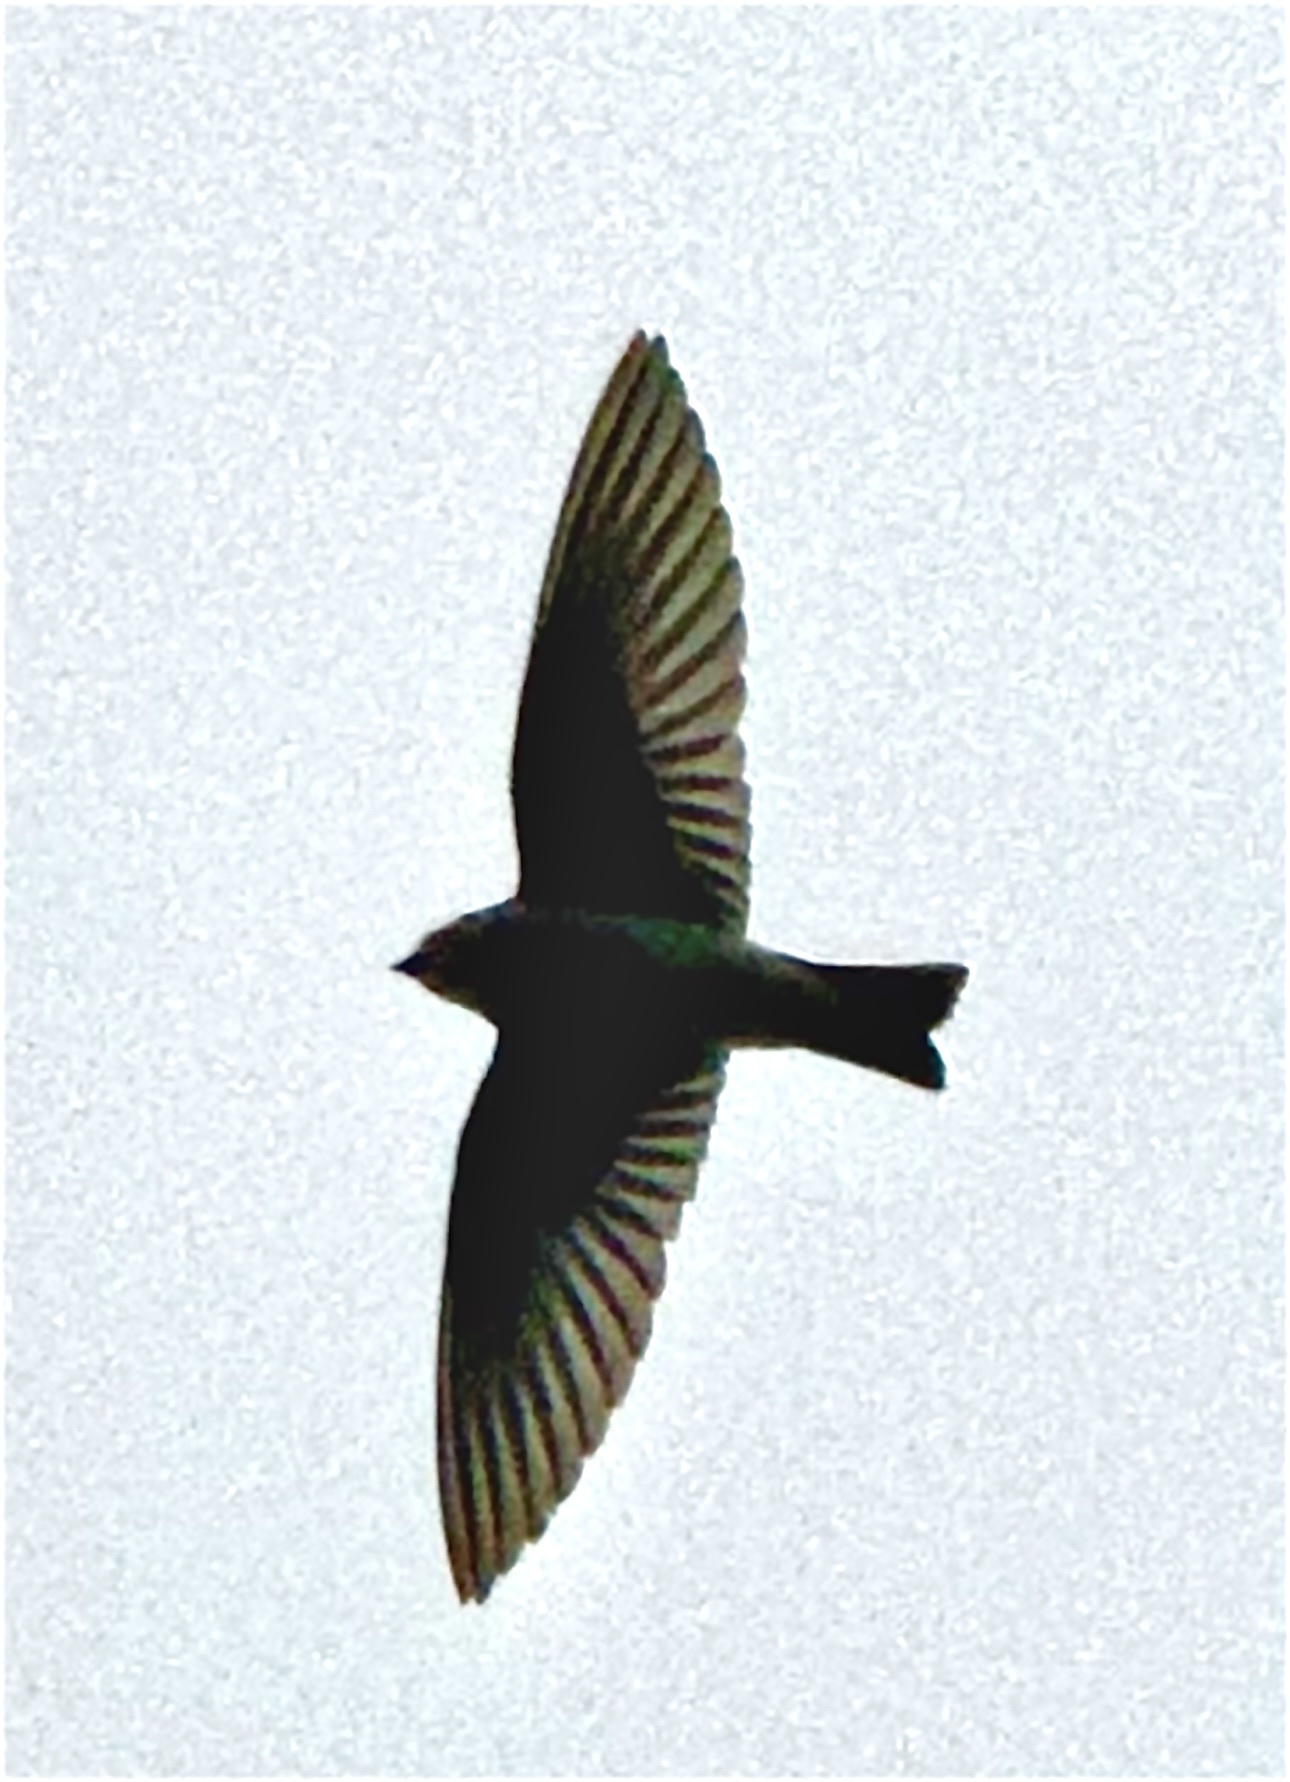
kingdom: Animalia
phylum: Chordata
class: Aves
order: Passeriformes
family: Hirundinidae
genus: Tachycineta
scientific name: Tachycineta bicolor
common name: Tree swallow
